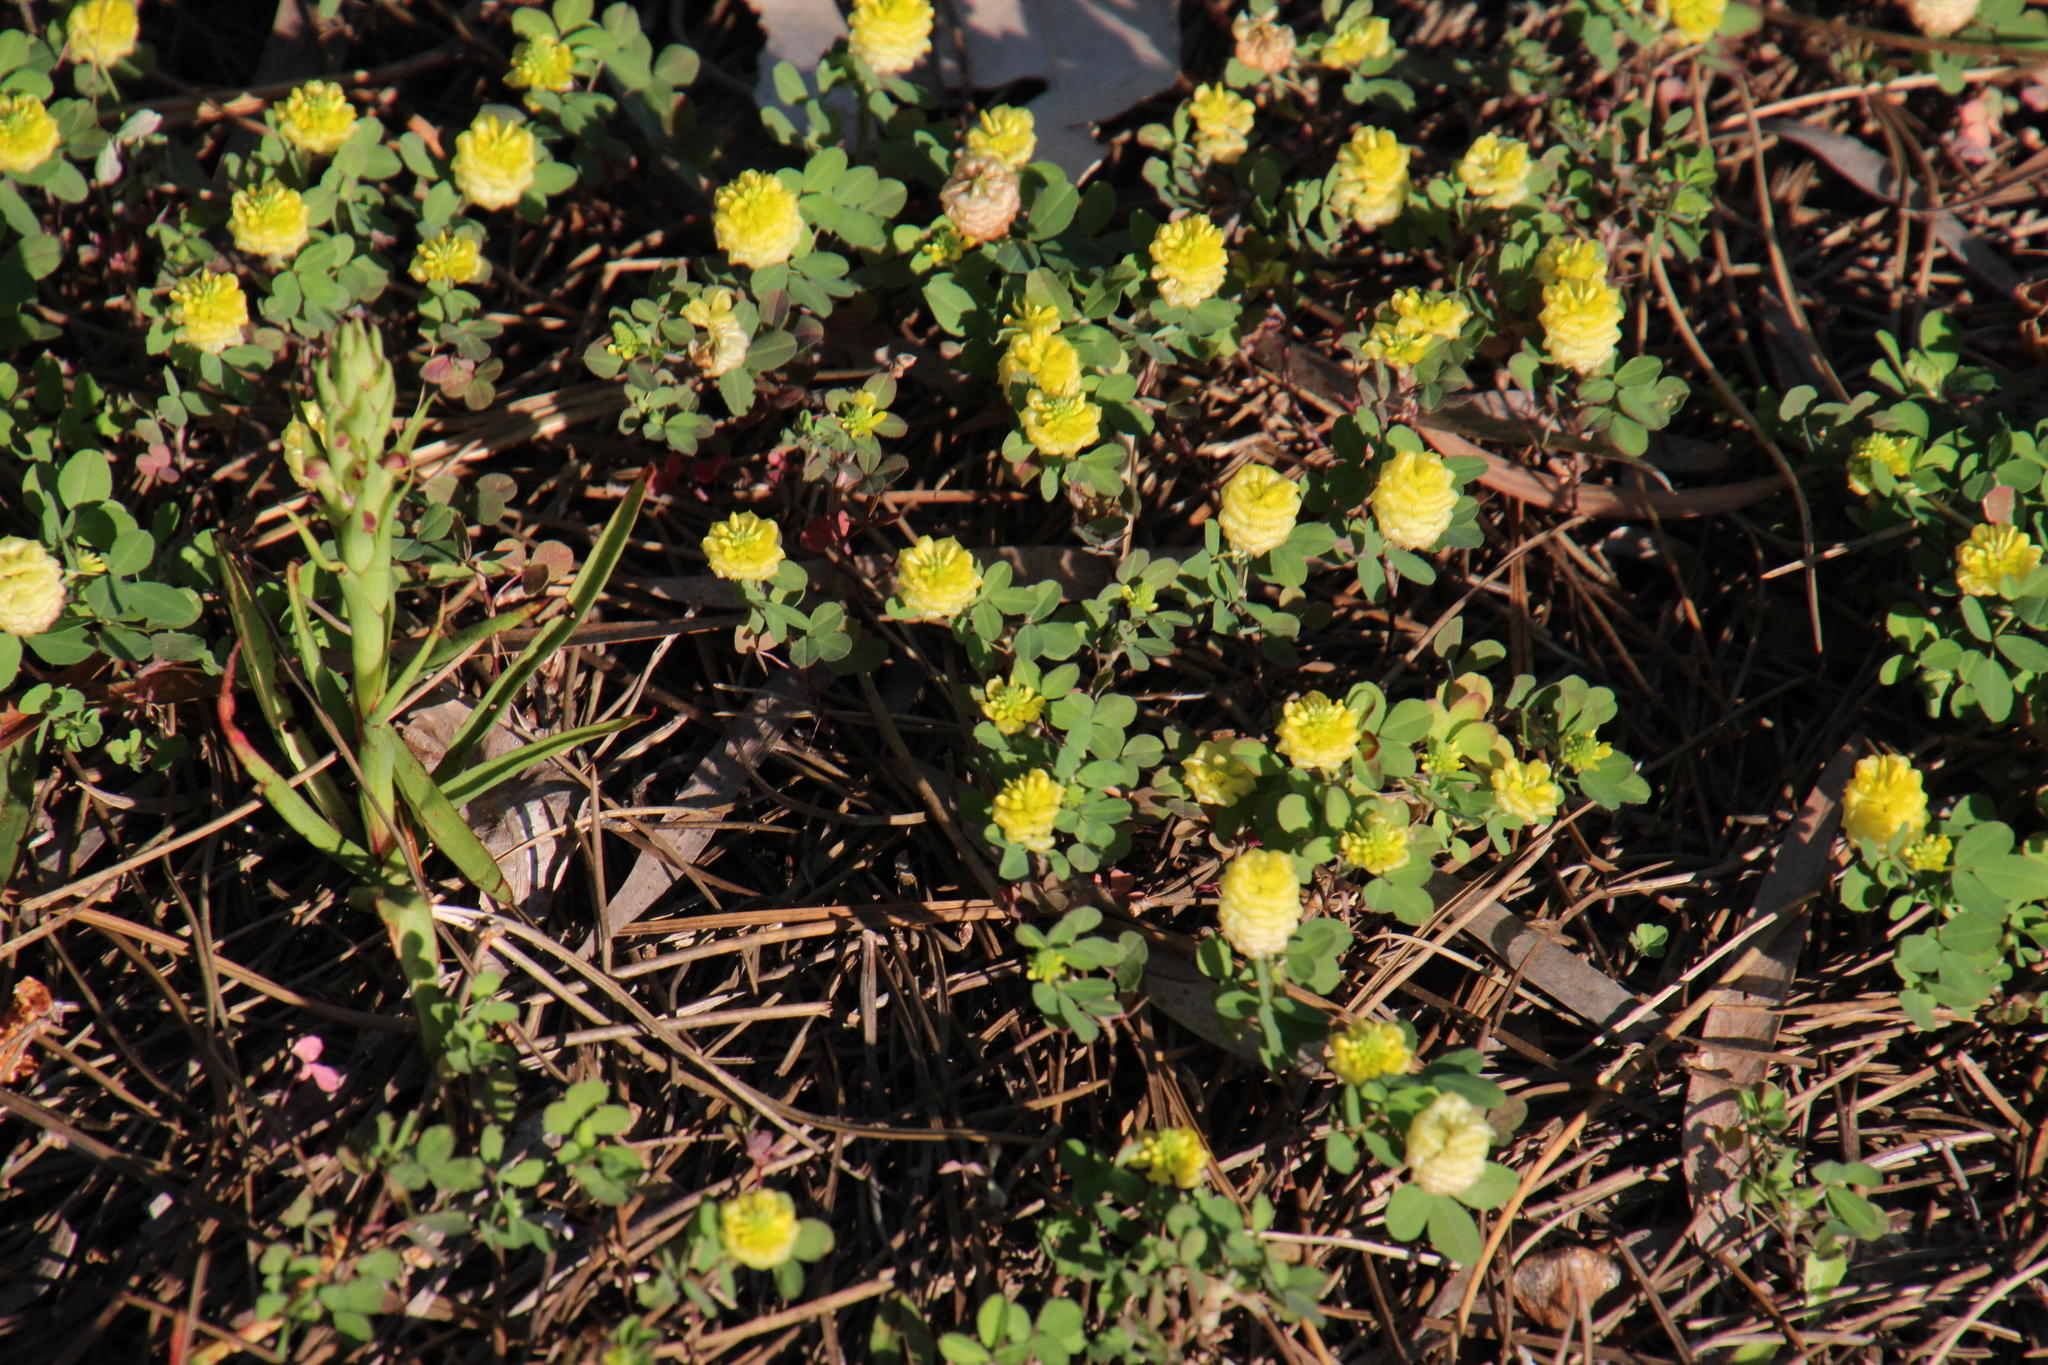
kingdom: Plantae
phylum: Tracheophyta
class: Magnoliopsida
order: Fabales
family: Fabaceae
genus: Trifolium
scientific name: Trifolium campestre
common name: Field clover
